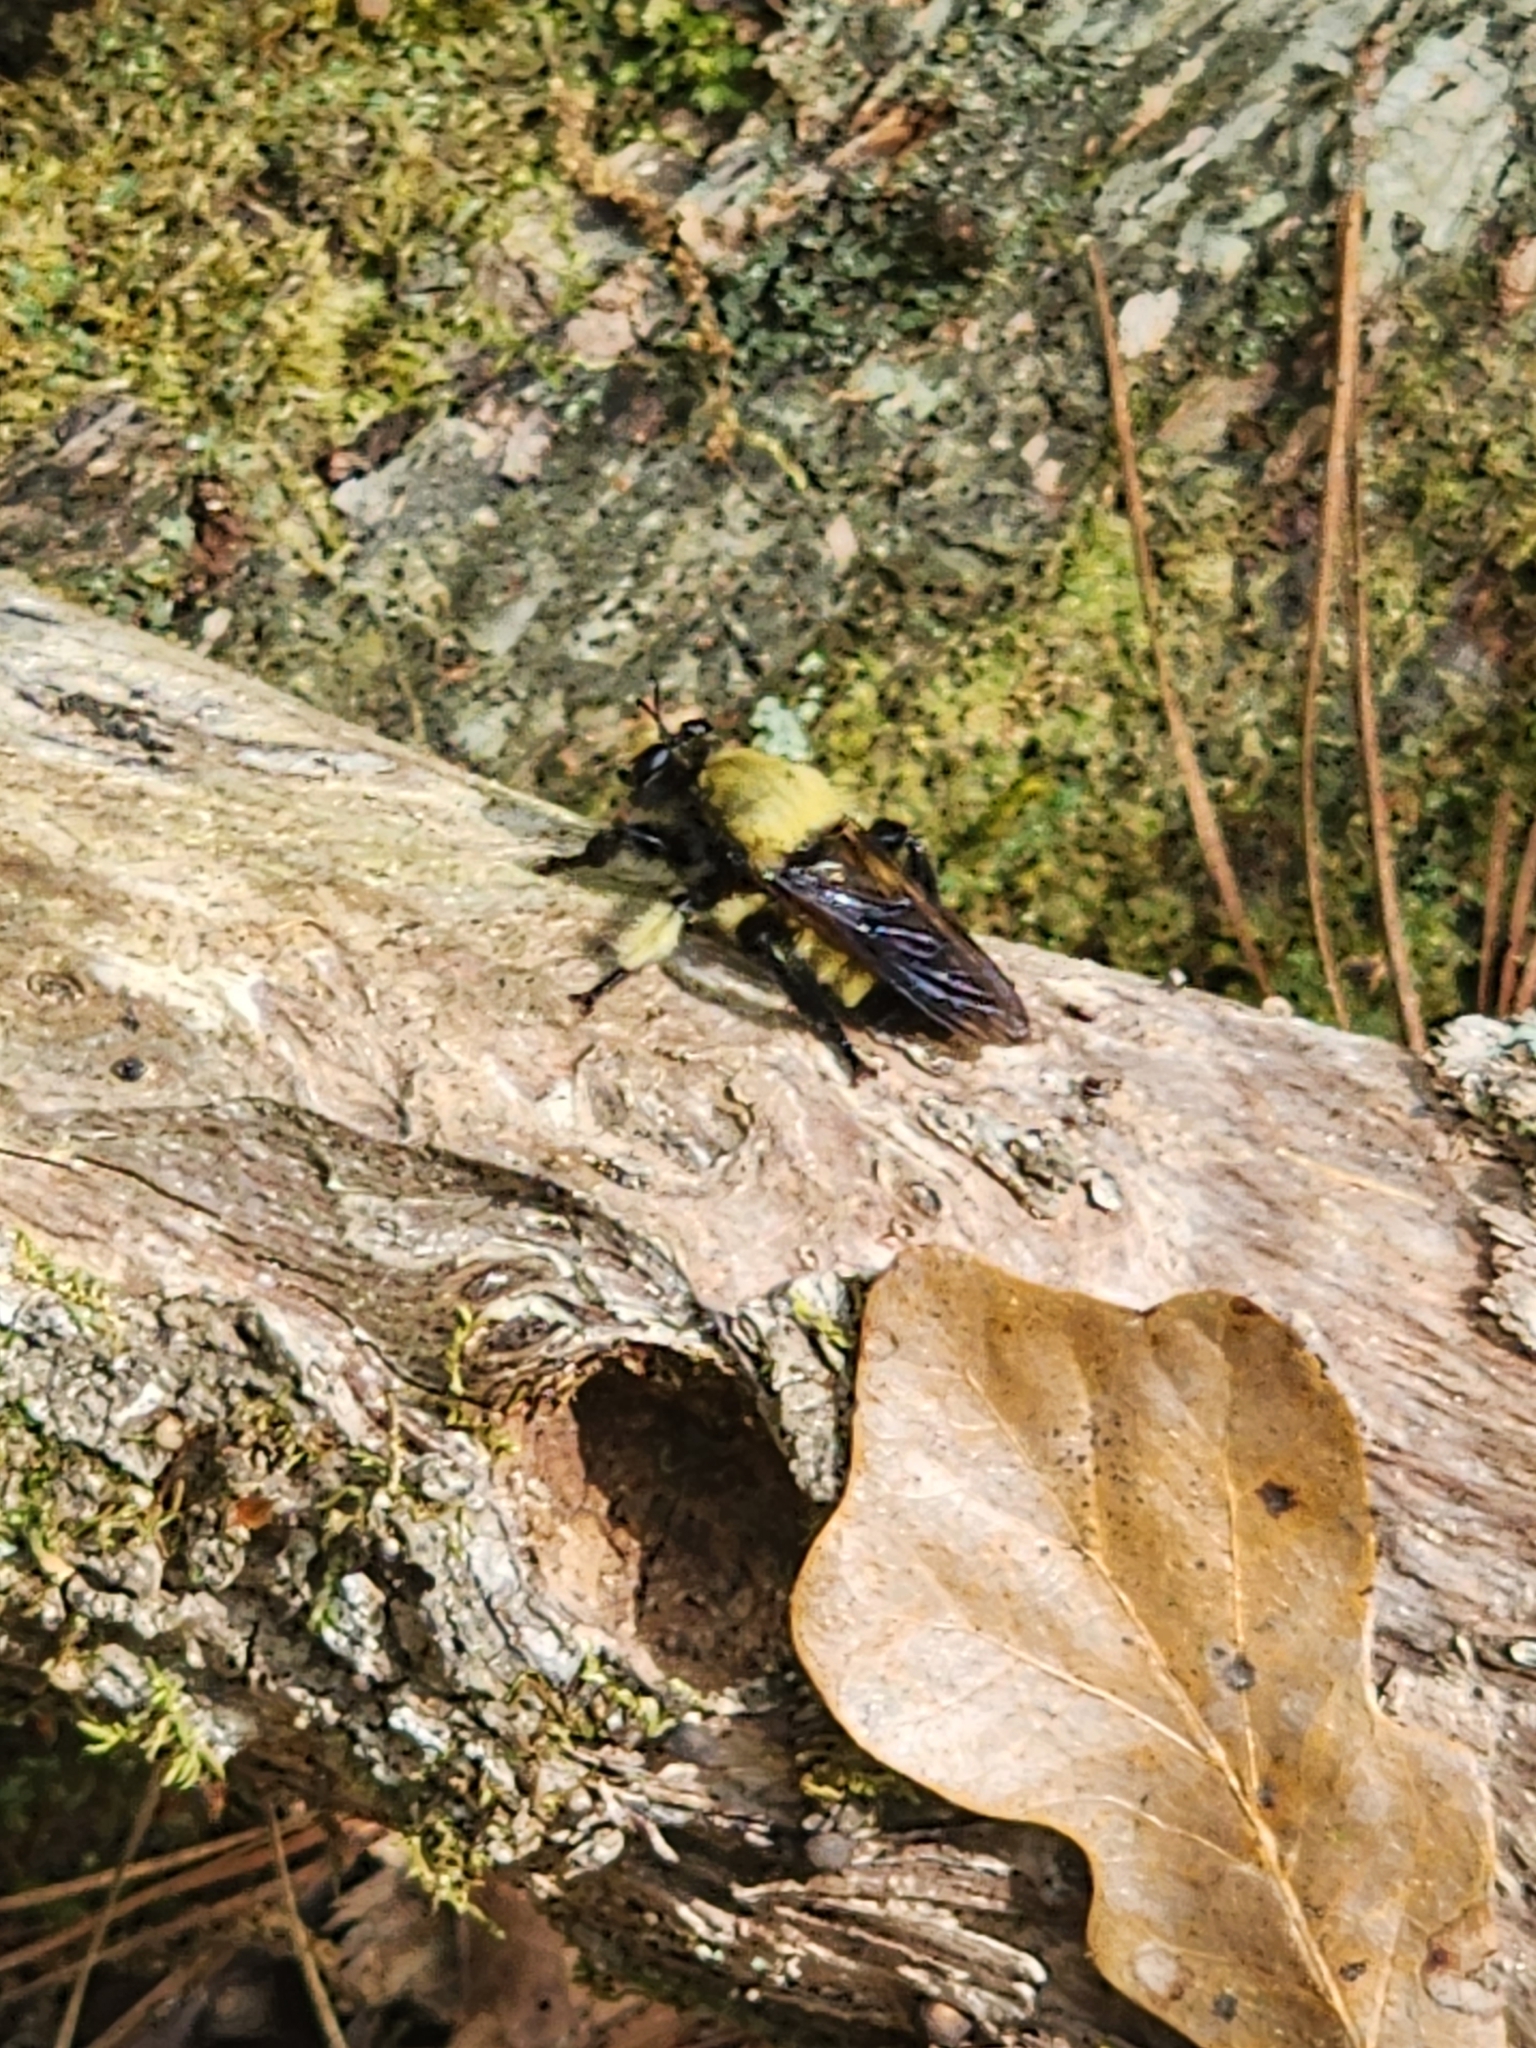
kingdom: Animalia
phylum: Arthropoda
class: Insecta
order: Diptera
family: Asilidae
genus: Laphria
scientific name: Laphria macquarti
